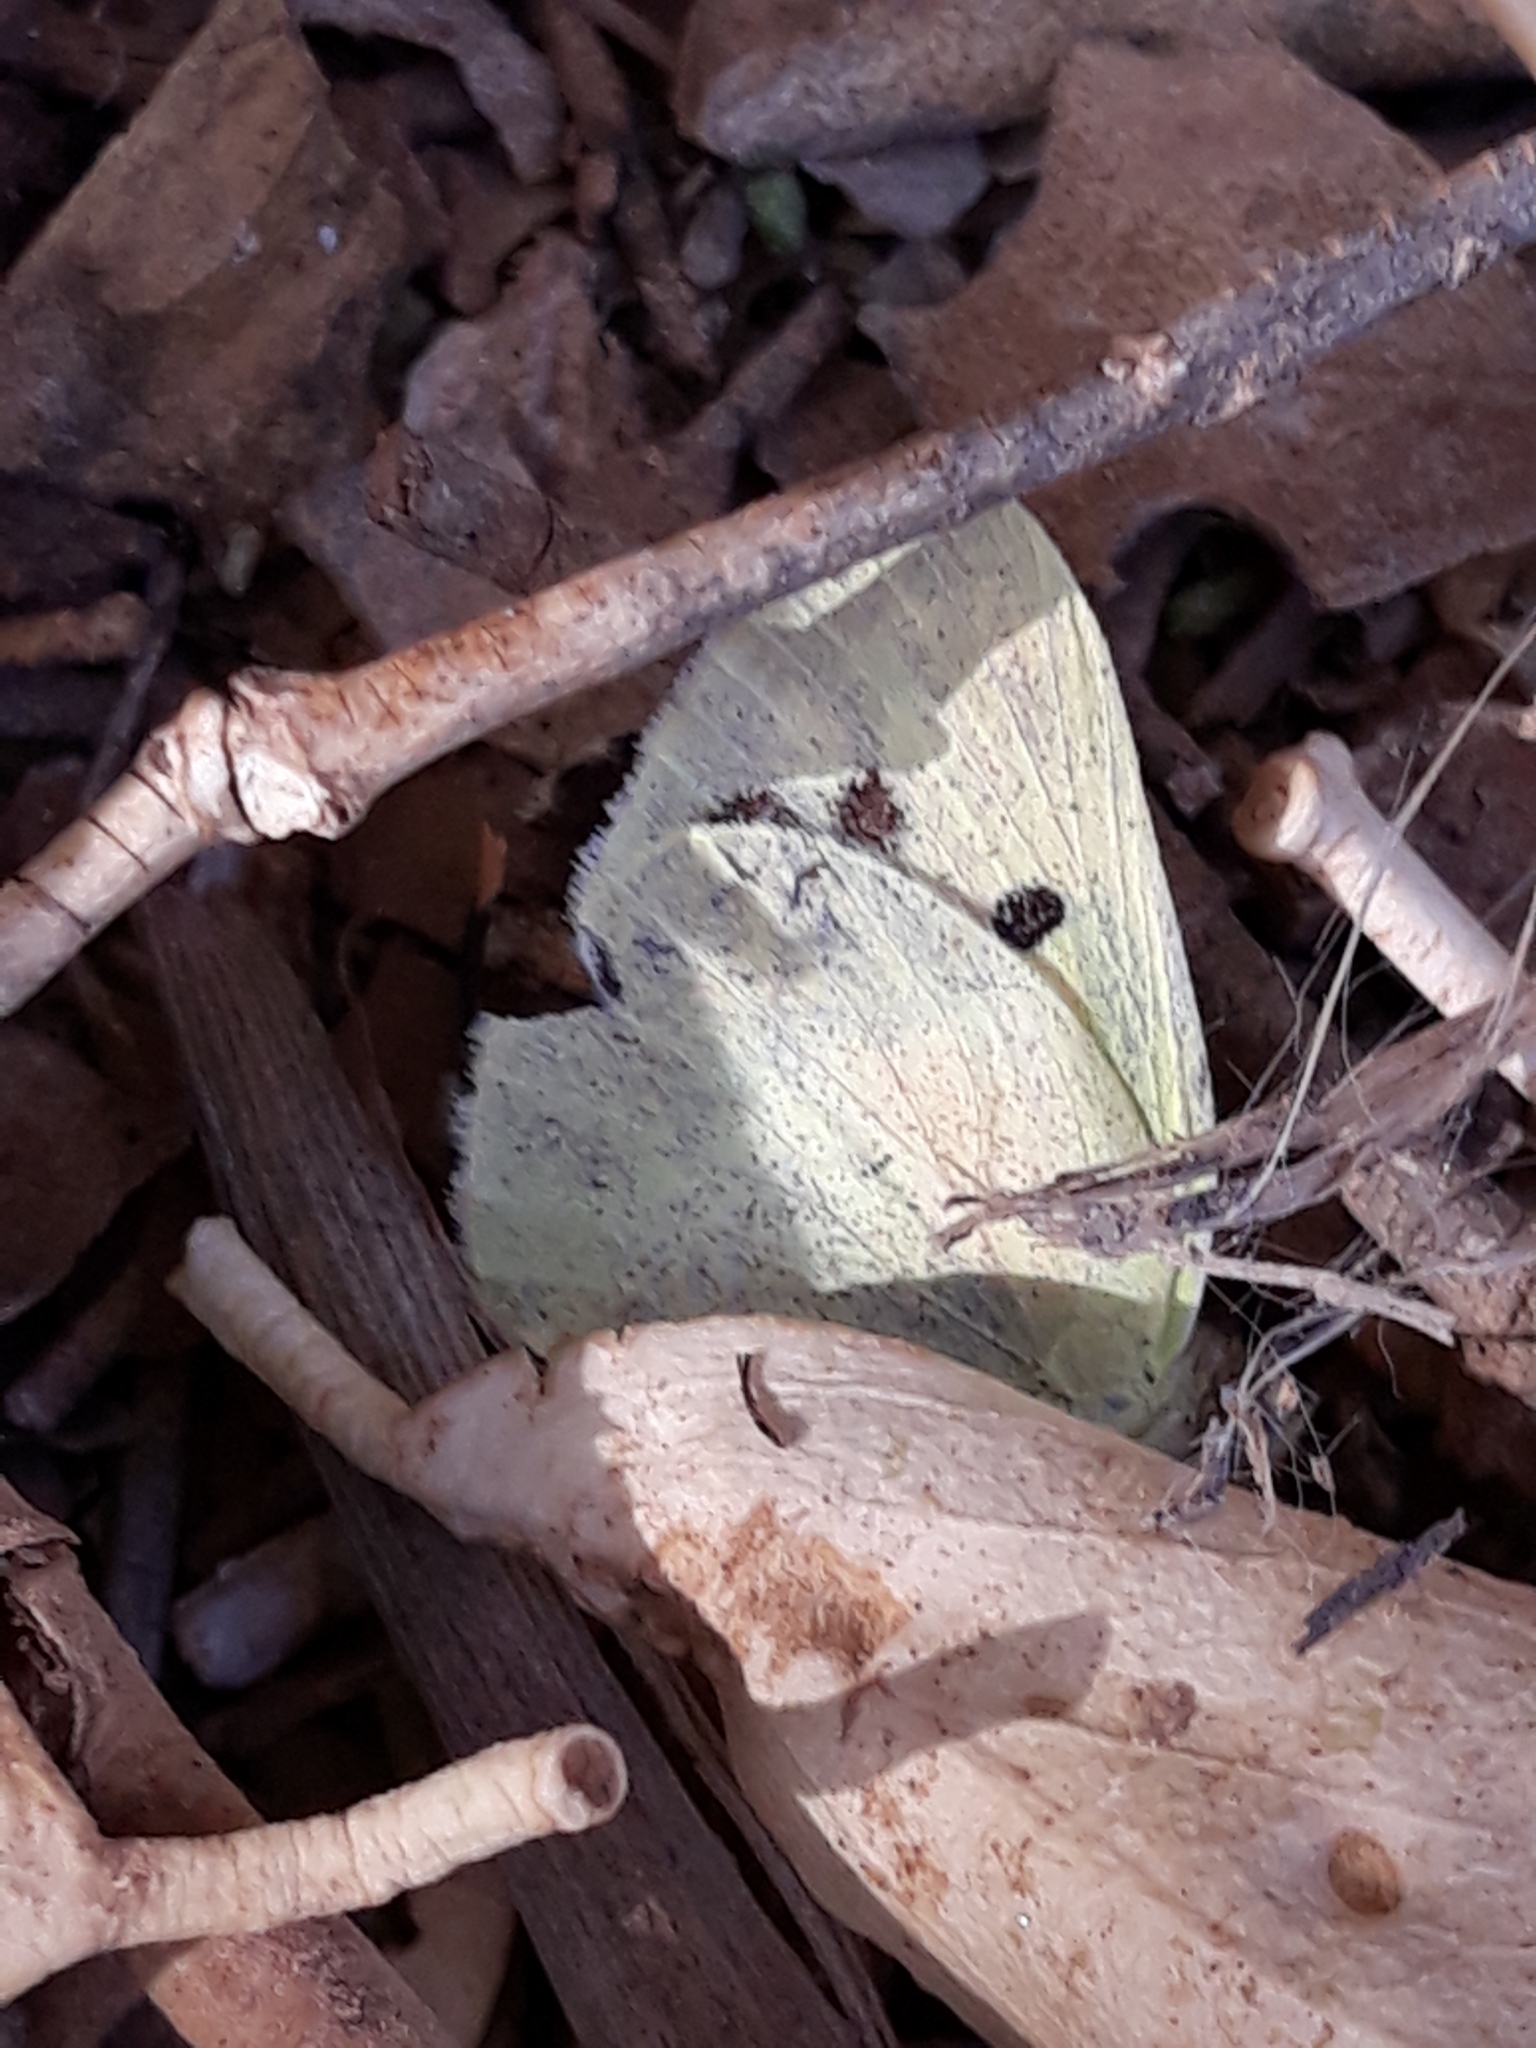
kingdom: Animalia
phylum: Arthropoda
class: Insecta
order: Lepidoptera
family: Pieridae
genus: Colotis
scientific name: Colotis phisadia
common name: Blue spotted arab
